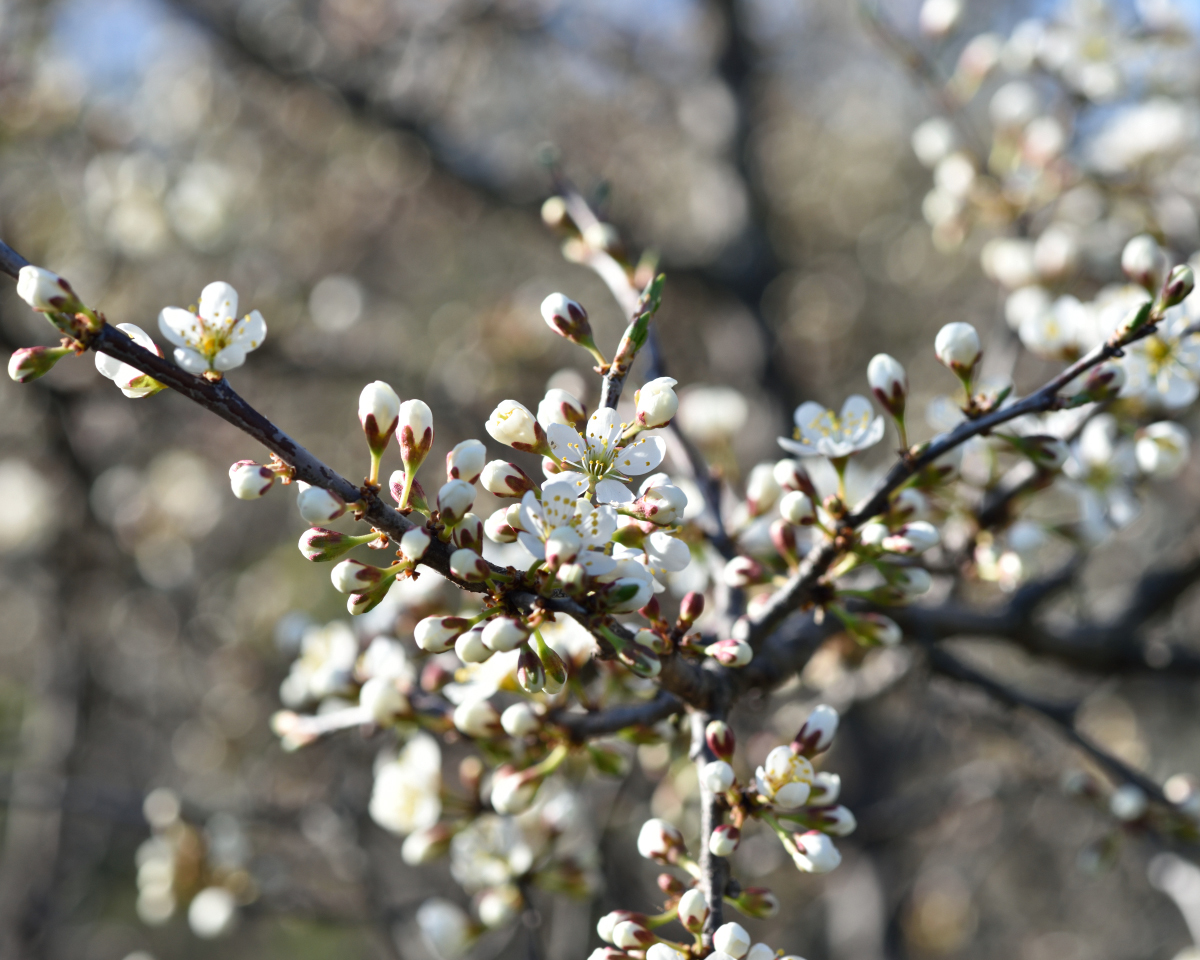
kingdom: Plantae
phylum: Tracheophyta
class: Magnoliopsida
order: Rosales
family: Rosaceae
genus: Prunus
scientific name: Prunus spinosa
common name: Blackthorn
